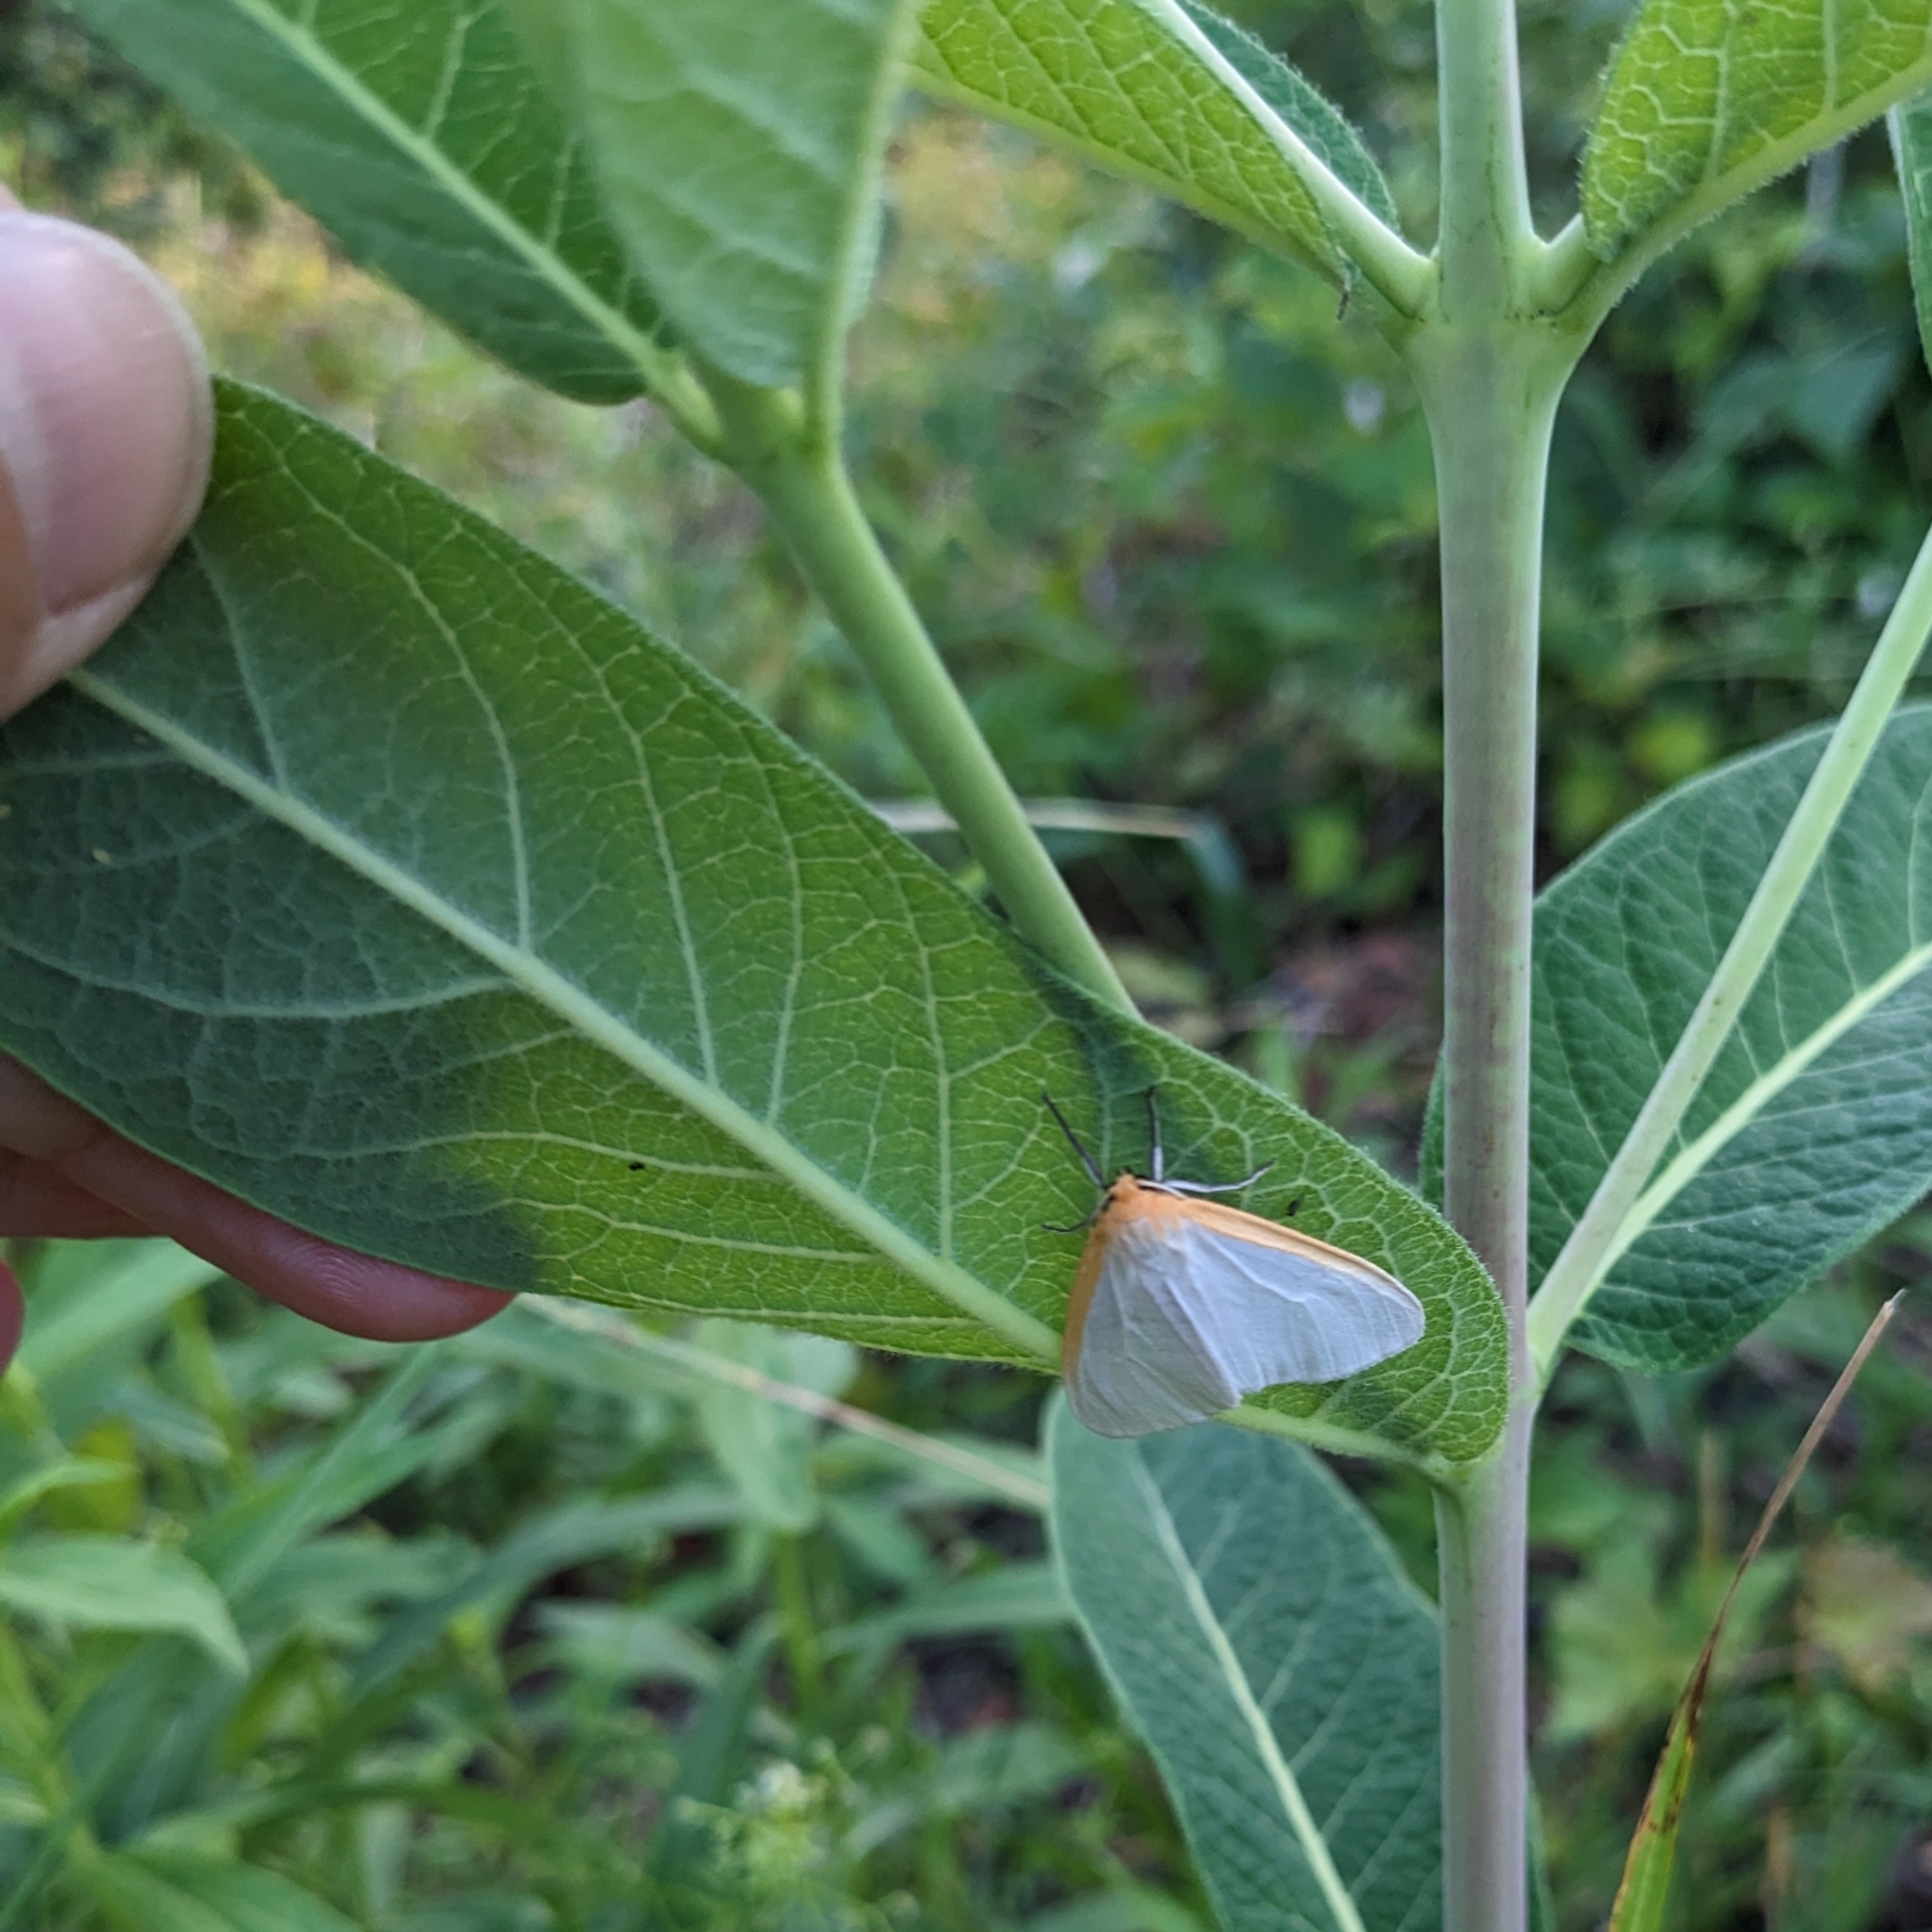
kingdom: Animalia
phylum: Arthropoda
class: Insecta
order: Lepidoptera
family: Erebidae
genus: Cycnia
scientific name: Cycnia tenera
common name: Delicate cycnia moth
